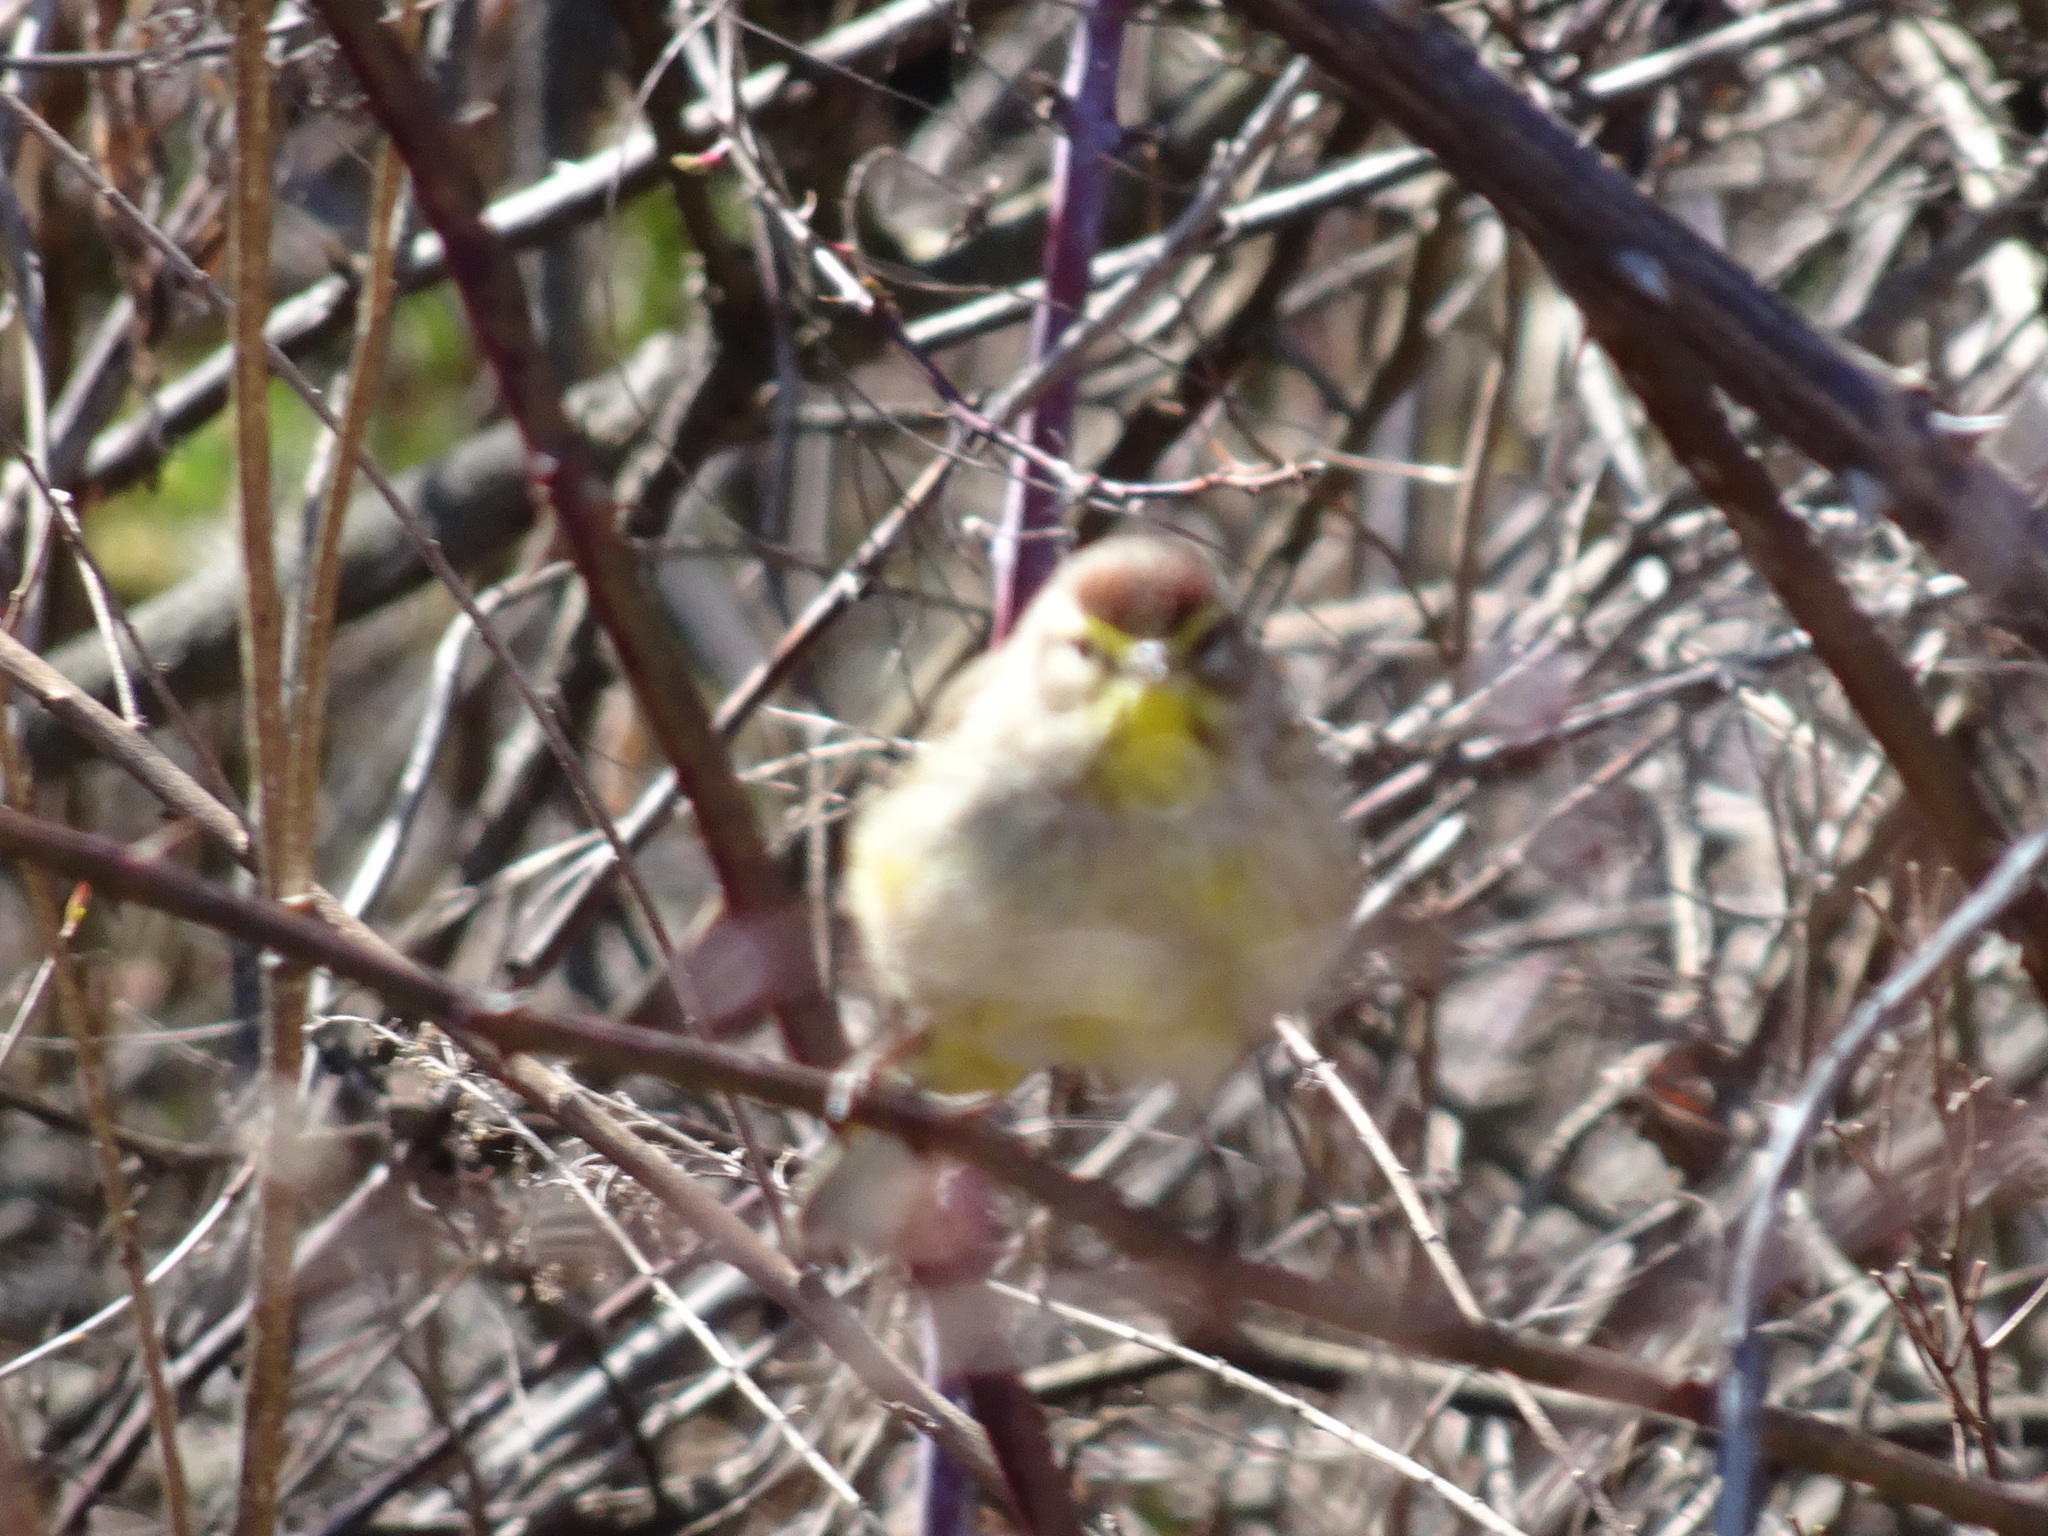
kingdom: Animalia
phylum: Chordata
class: Aves
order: Passeriformes
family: Parulidae
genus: Setophaga
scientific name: Setophaga palmarum
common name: Palm warbler
